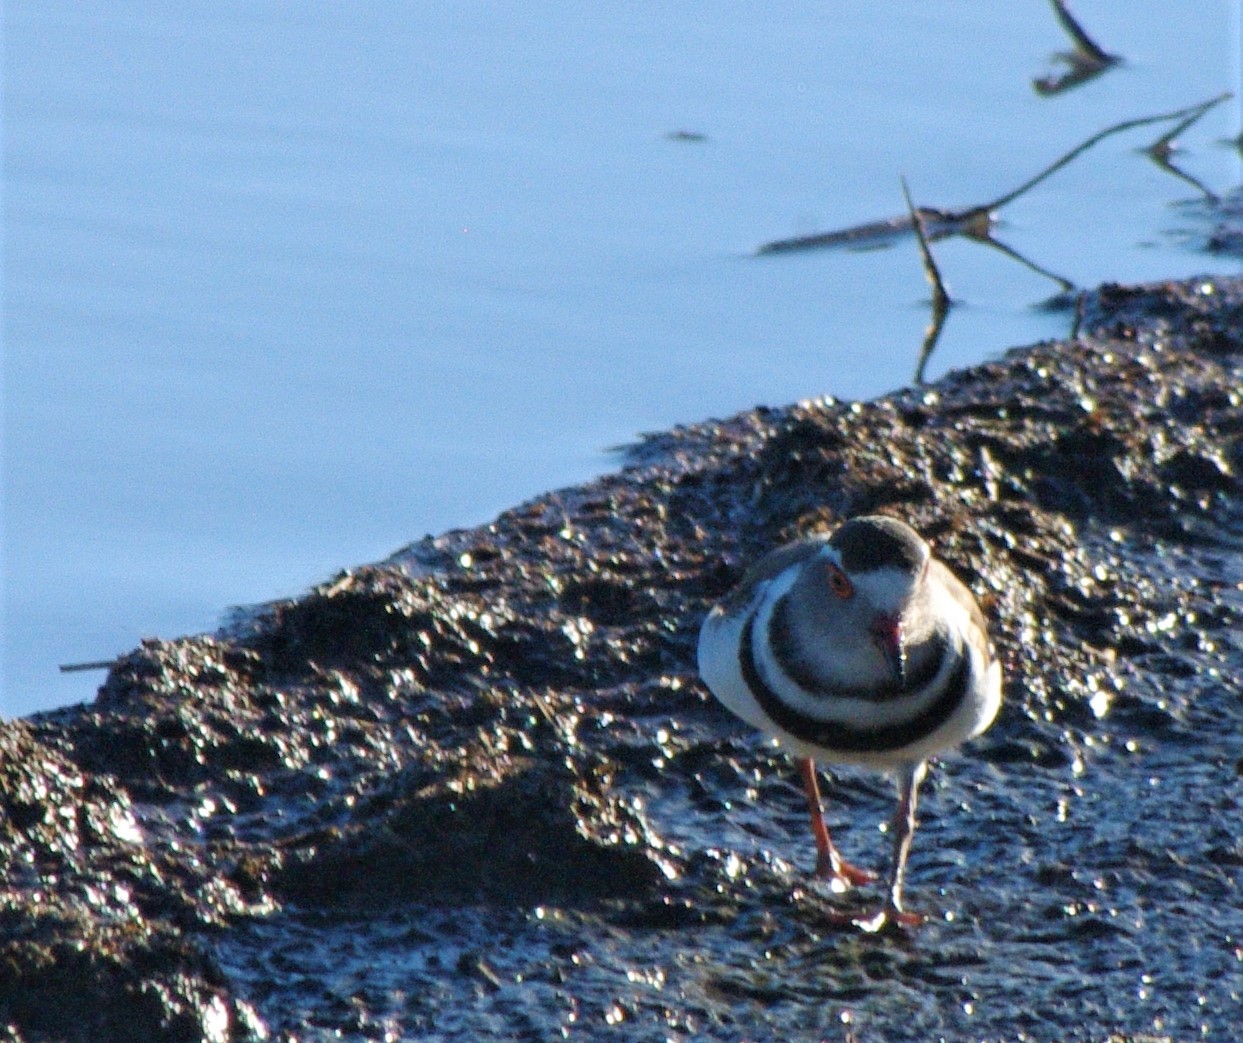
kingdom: Animalia
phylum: Chordata
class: Aves
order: Charadriiformes
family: Charadriidae
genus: Charadrius
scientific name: Charadrius tricollaris
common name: Three-banded plover
